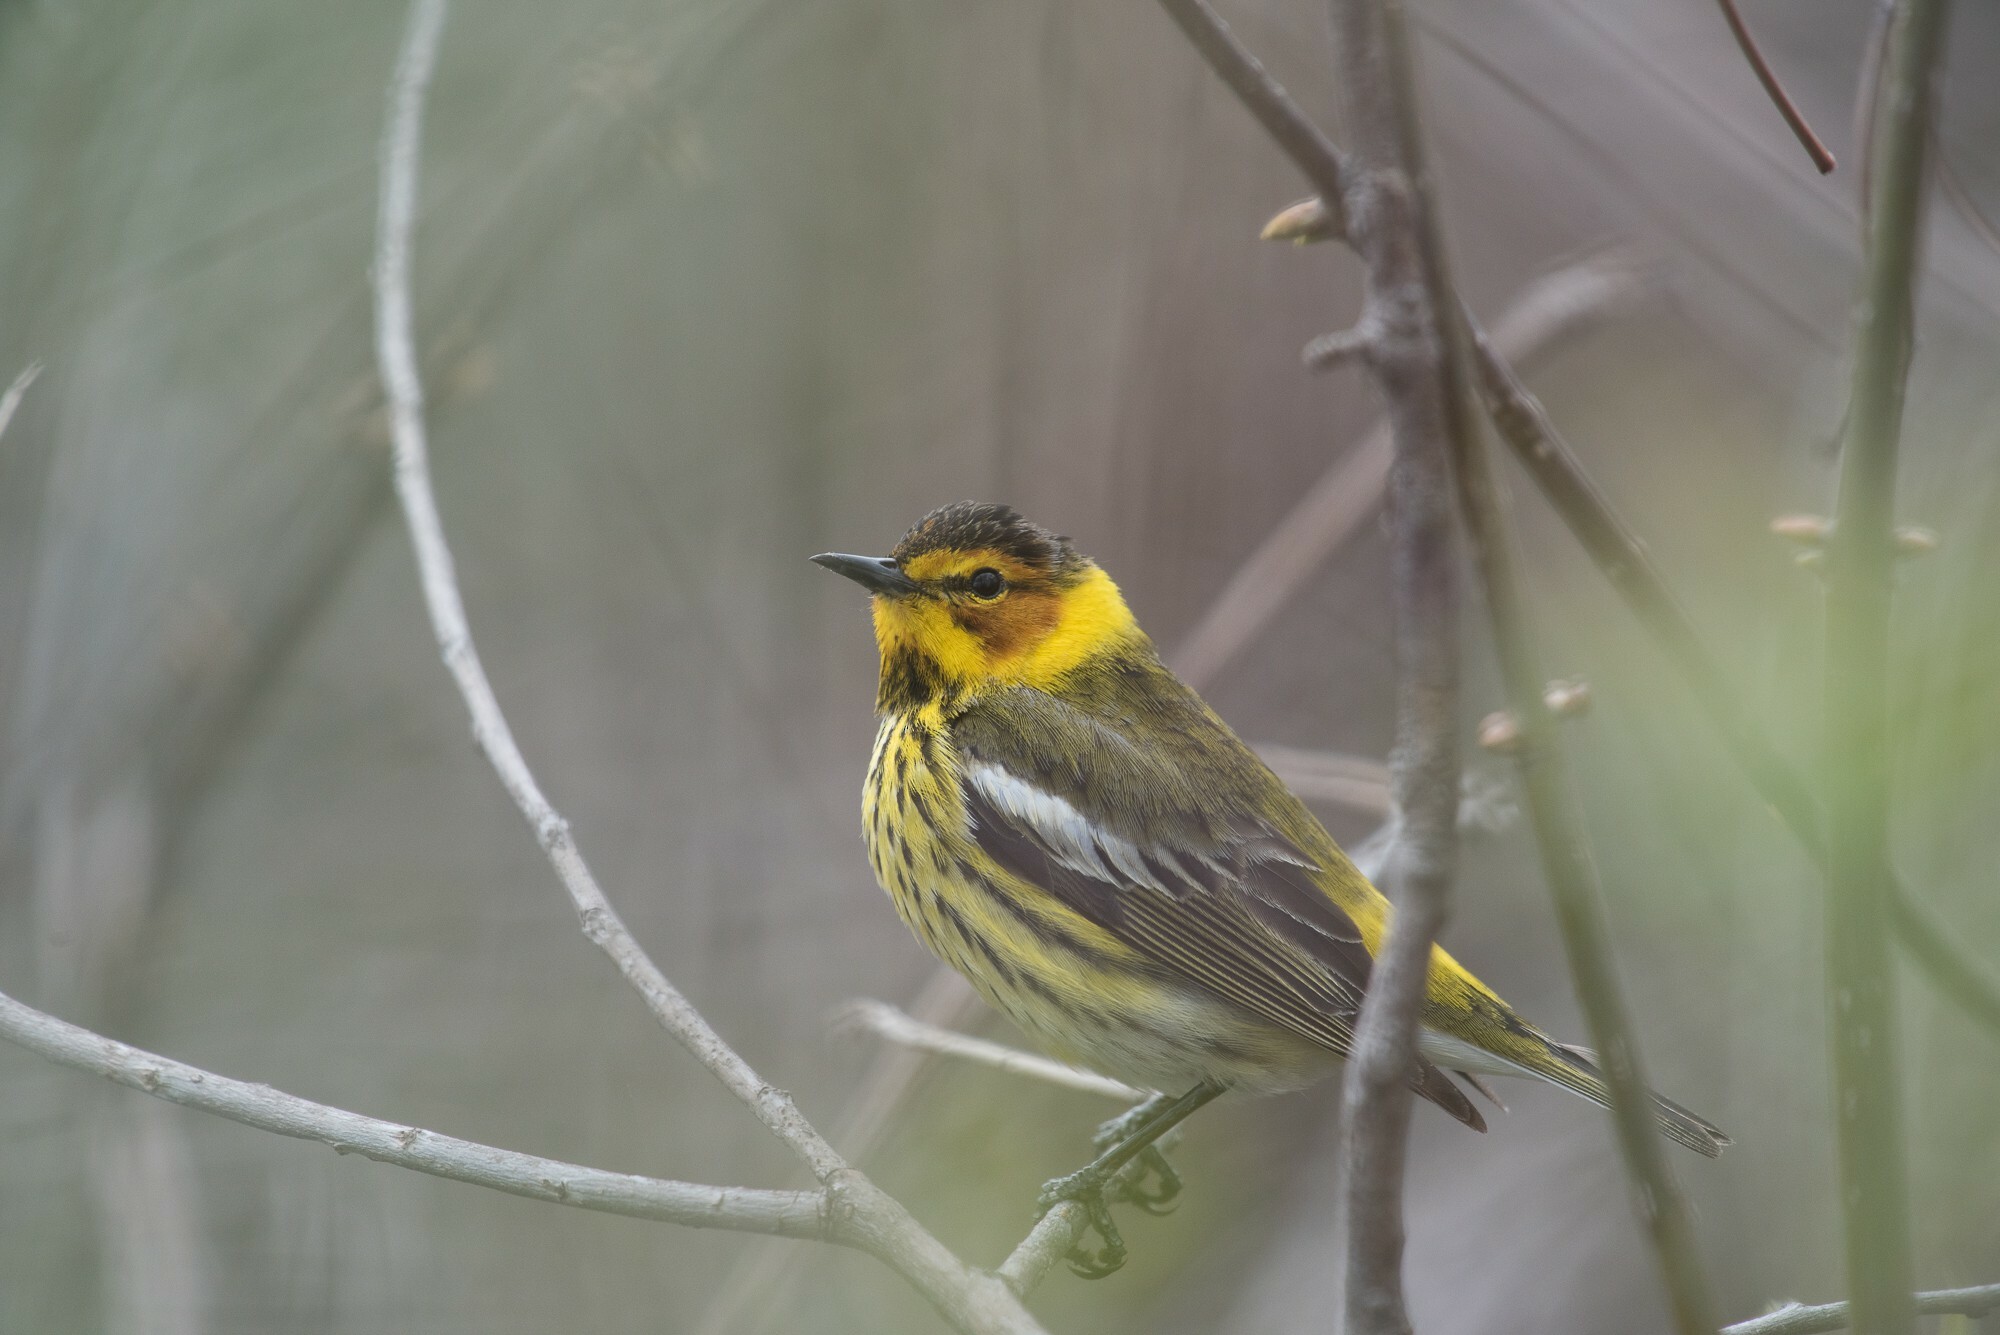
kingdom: Animalia
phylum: Chordata
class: Aves
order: Passeriformes
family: Parulidae
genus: Setophaga
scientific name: Setophaga tigrina
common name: Cape may warbler
